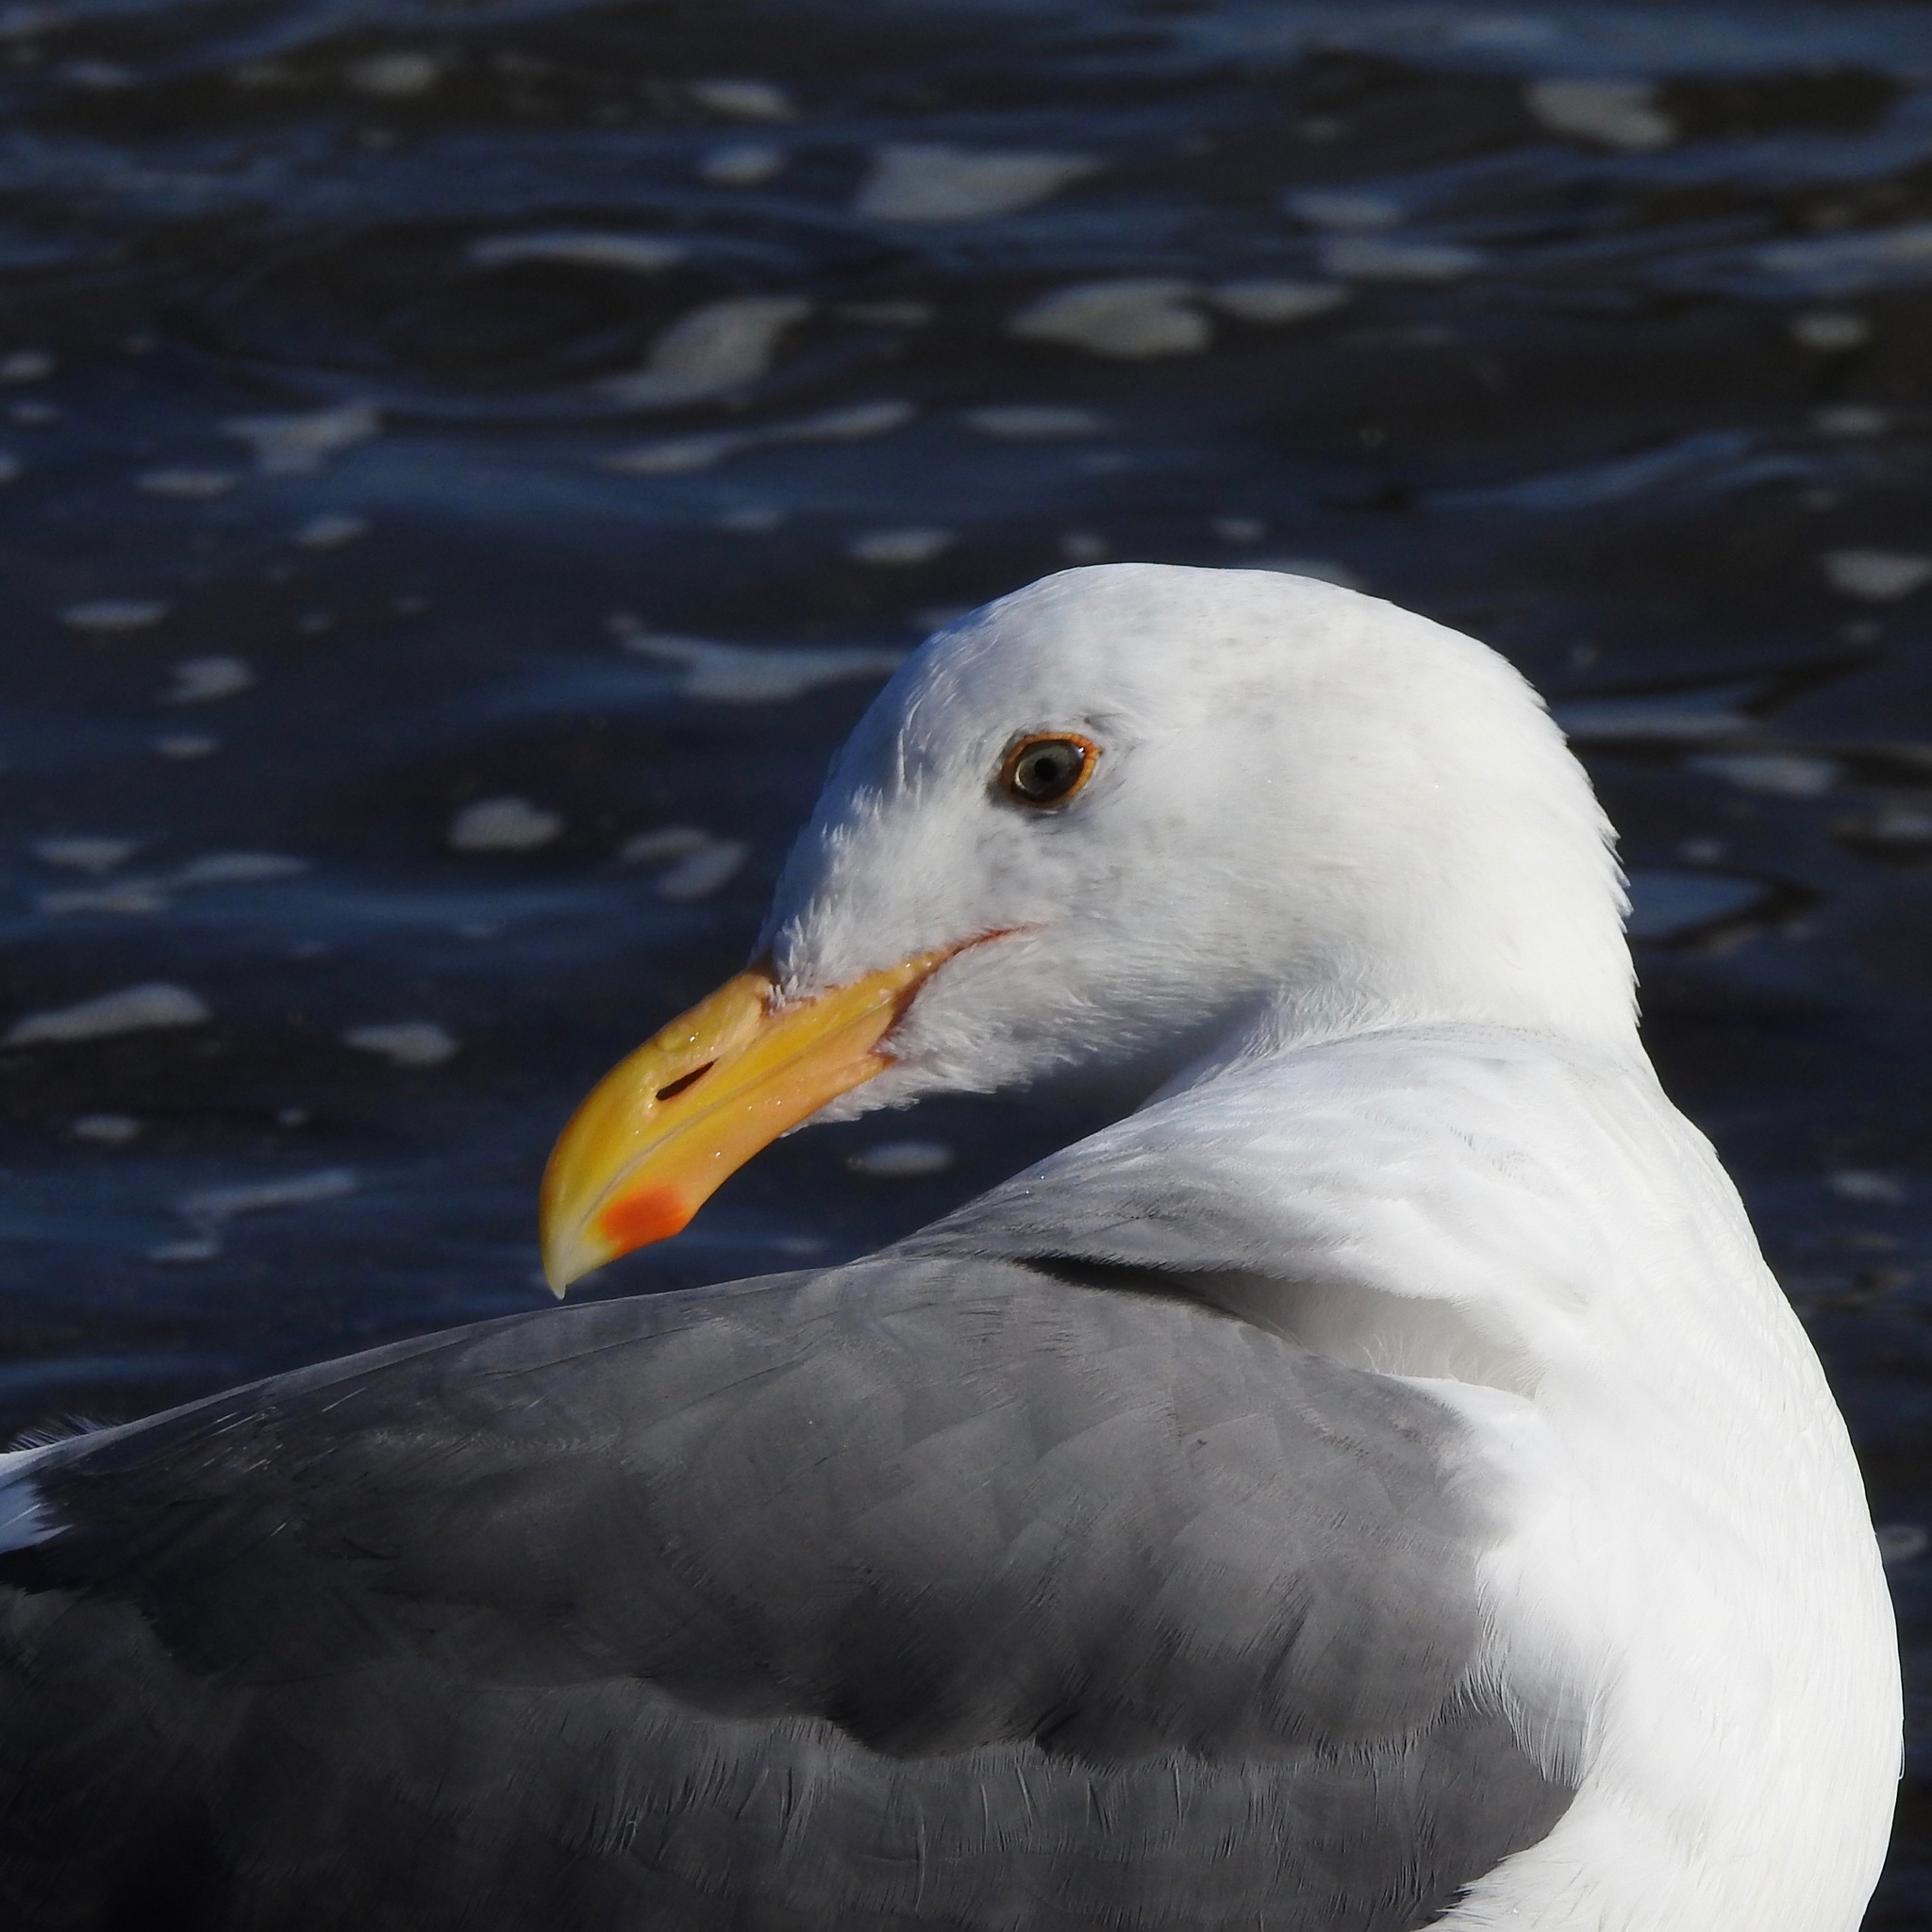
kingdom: Animalia
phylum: Chordata
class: Aves
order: Charadriiformes
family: Laridae
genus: Larus
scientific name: Larus occidentalis
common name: Western gull
